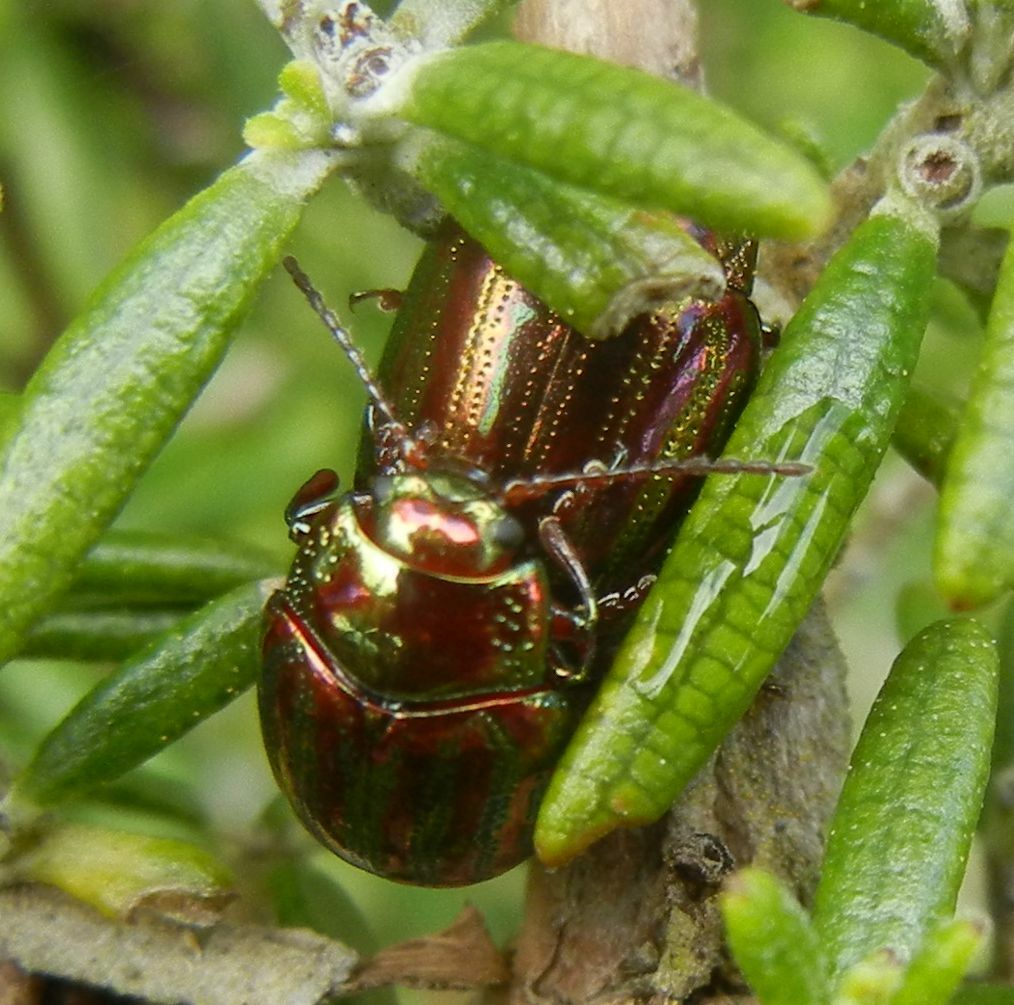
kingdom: Animalia
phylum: Arthropoda
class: Insecta
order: Coleoptera
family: Chrysomelidae
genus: Chrysolina
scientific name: Chrysolina americana
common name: Rosemary beetle
